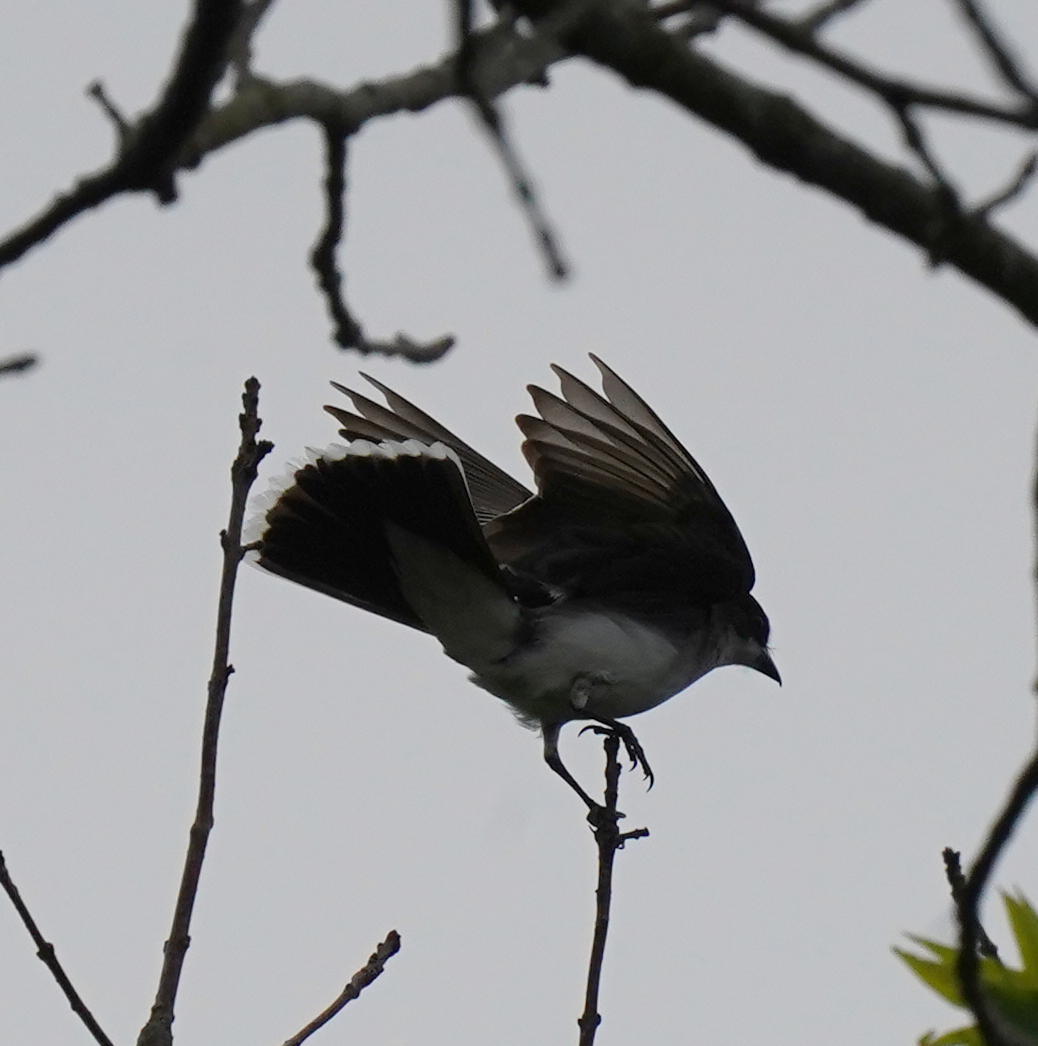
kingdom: Animalia
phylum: Chordata
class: Aves
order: Passeriformes
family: Tyrannidae
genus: Tyrannus
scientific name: Tyrannus tyrannus
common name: Eastern kingbird
